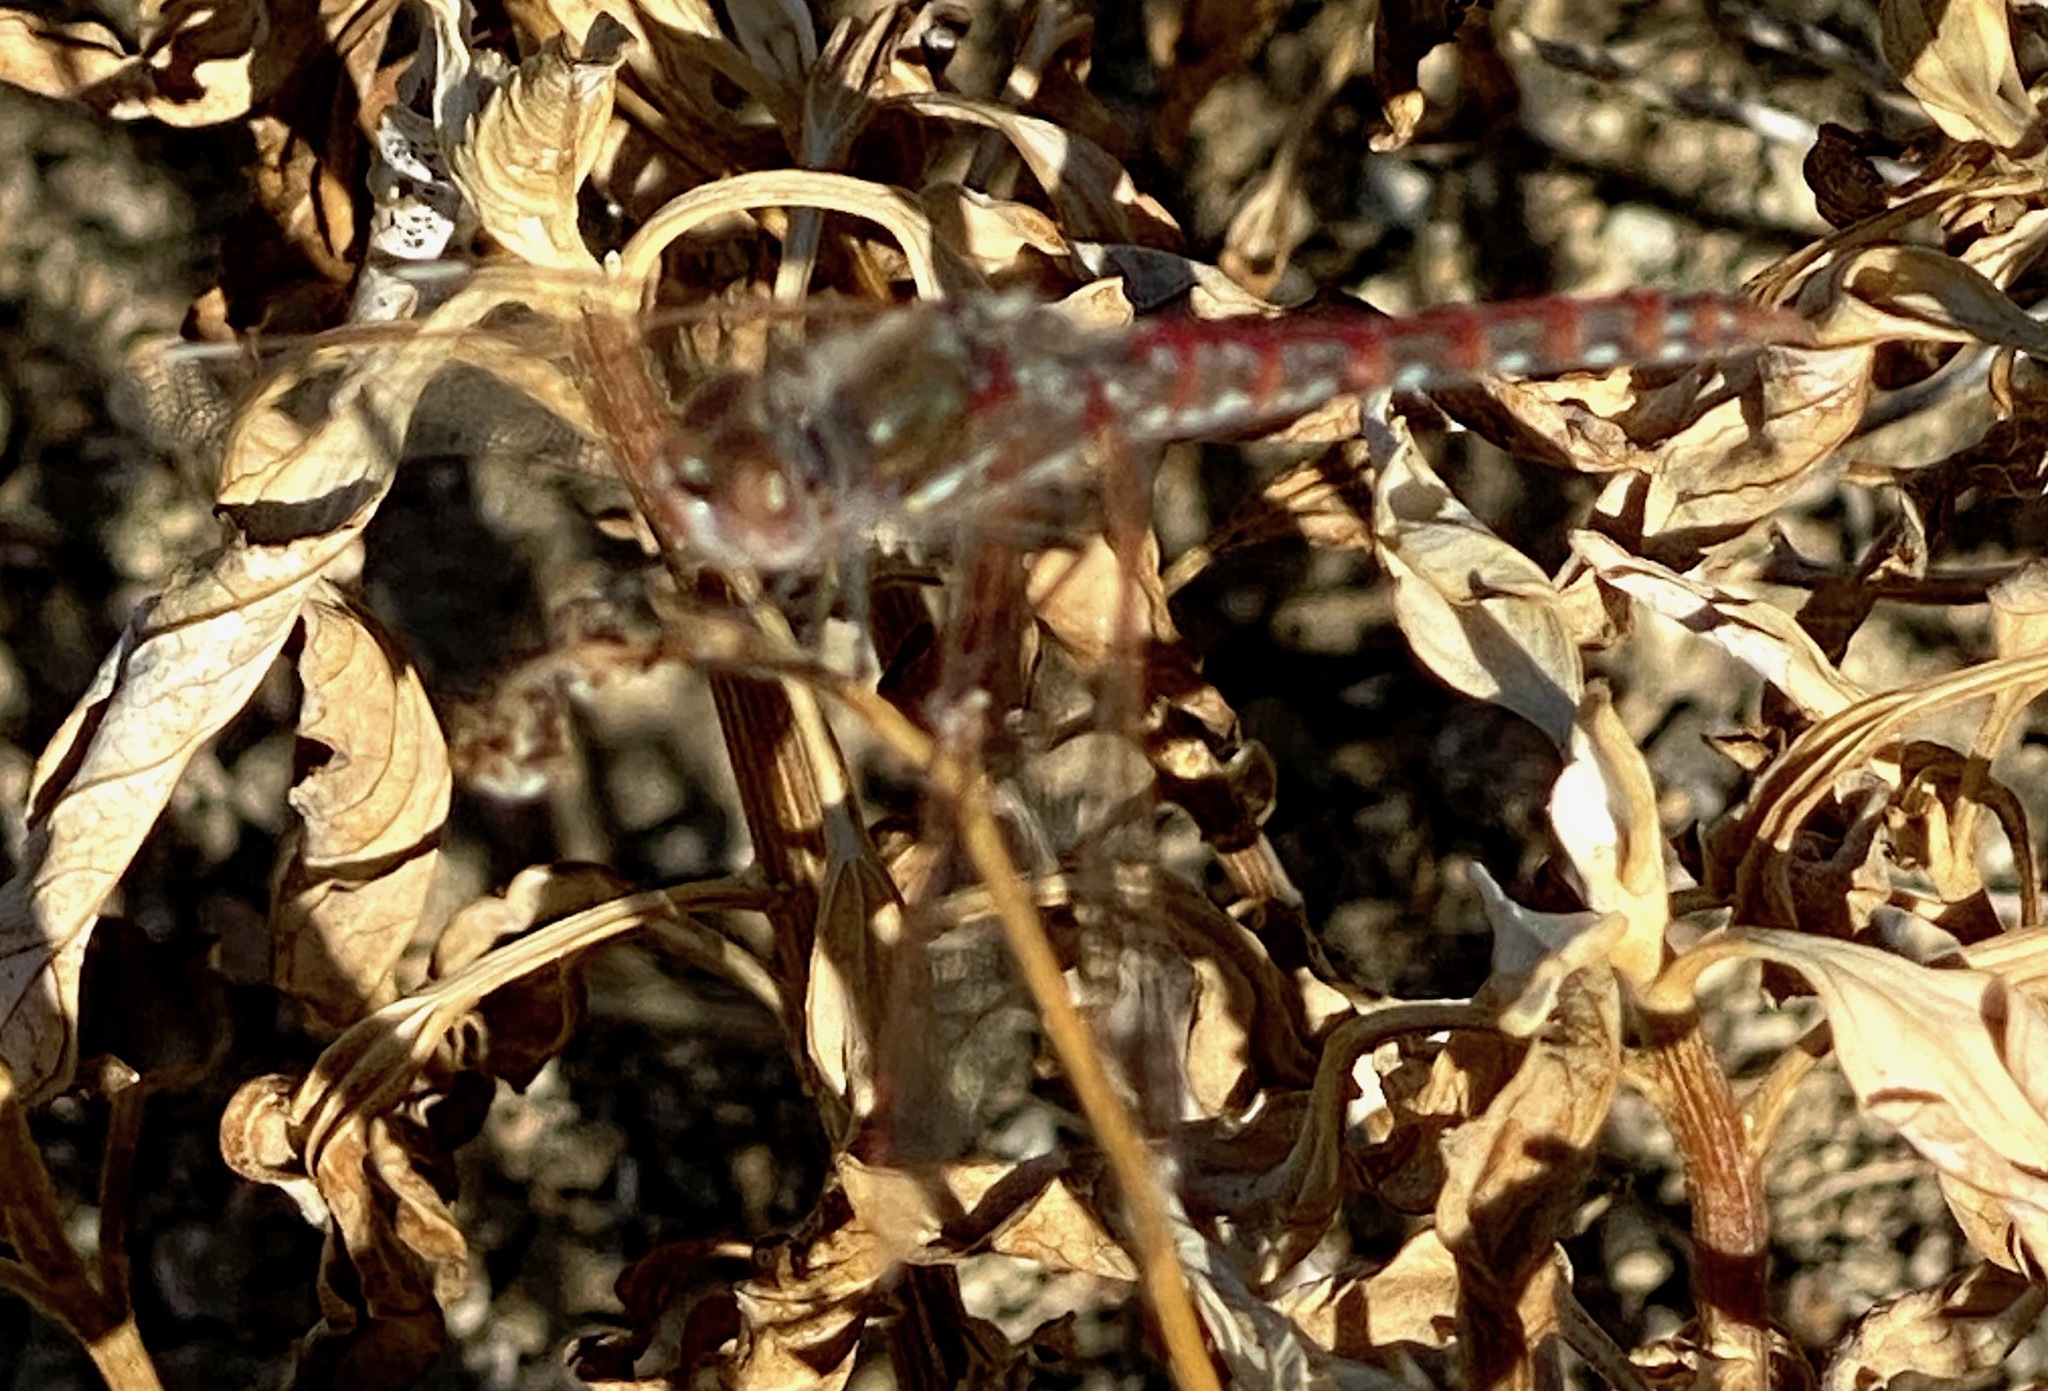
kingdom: Animalia
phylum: Arthropoda
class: Insecta
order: Odonata
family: Libellulidae
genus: Sympetrum
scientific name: Sympetrum corruptum
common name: Variegated meadowhawk
